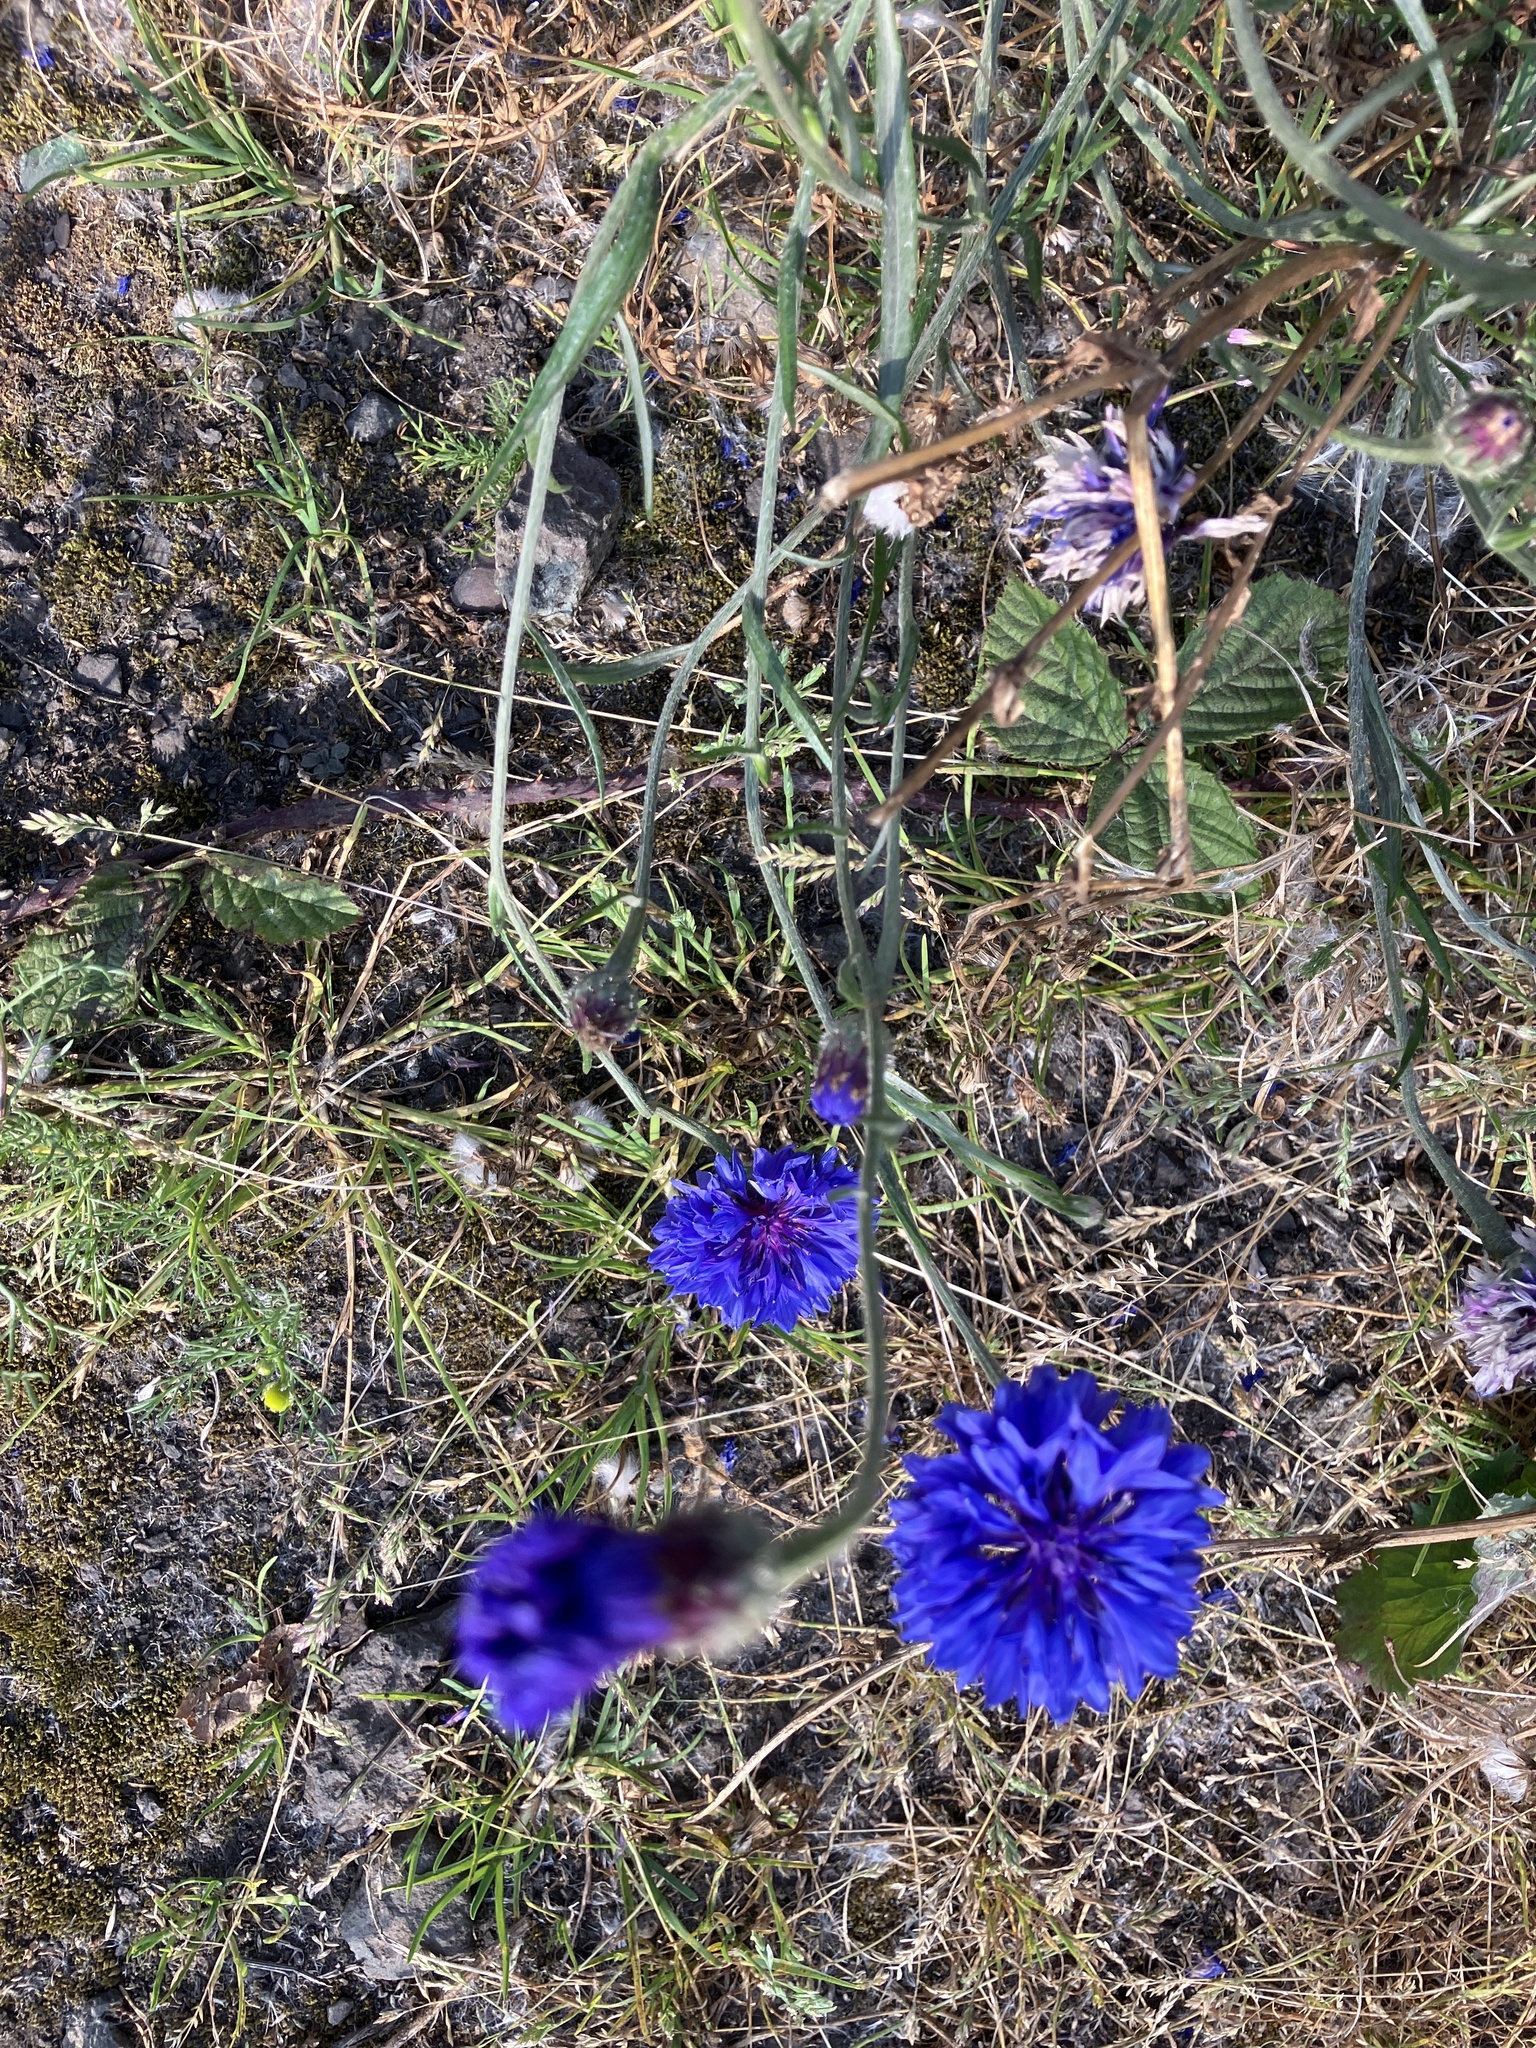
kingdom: Plantae
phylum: Tracheophyta
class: Magnoliopsida
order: Asterales
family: Asteraceae
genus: Centaurea
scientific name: Centaurea cyanus
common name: Cornflower
